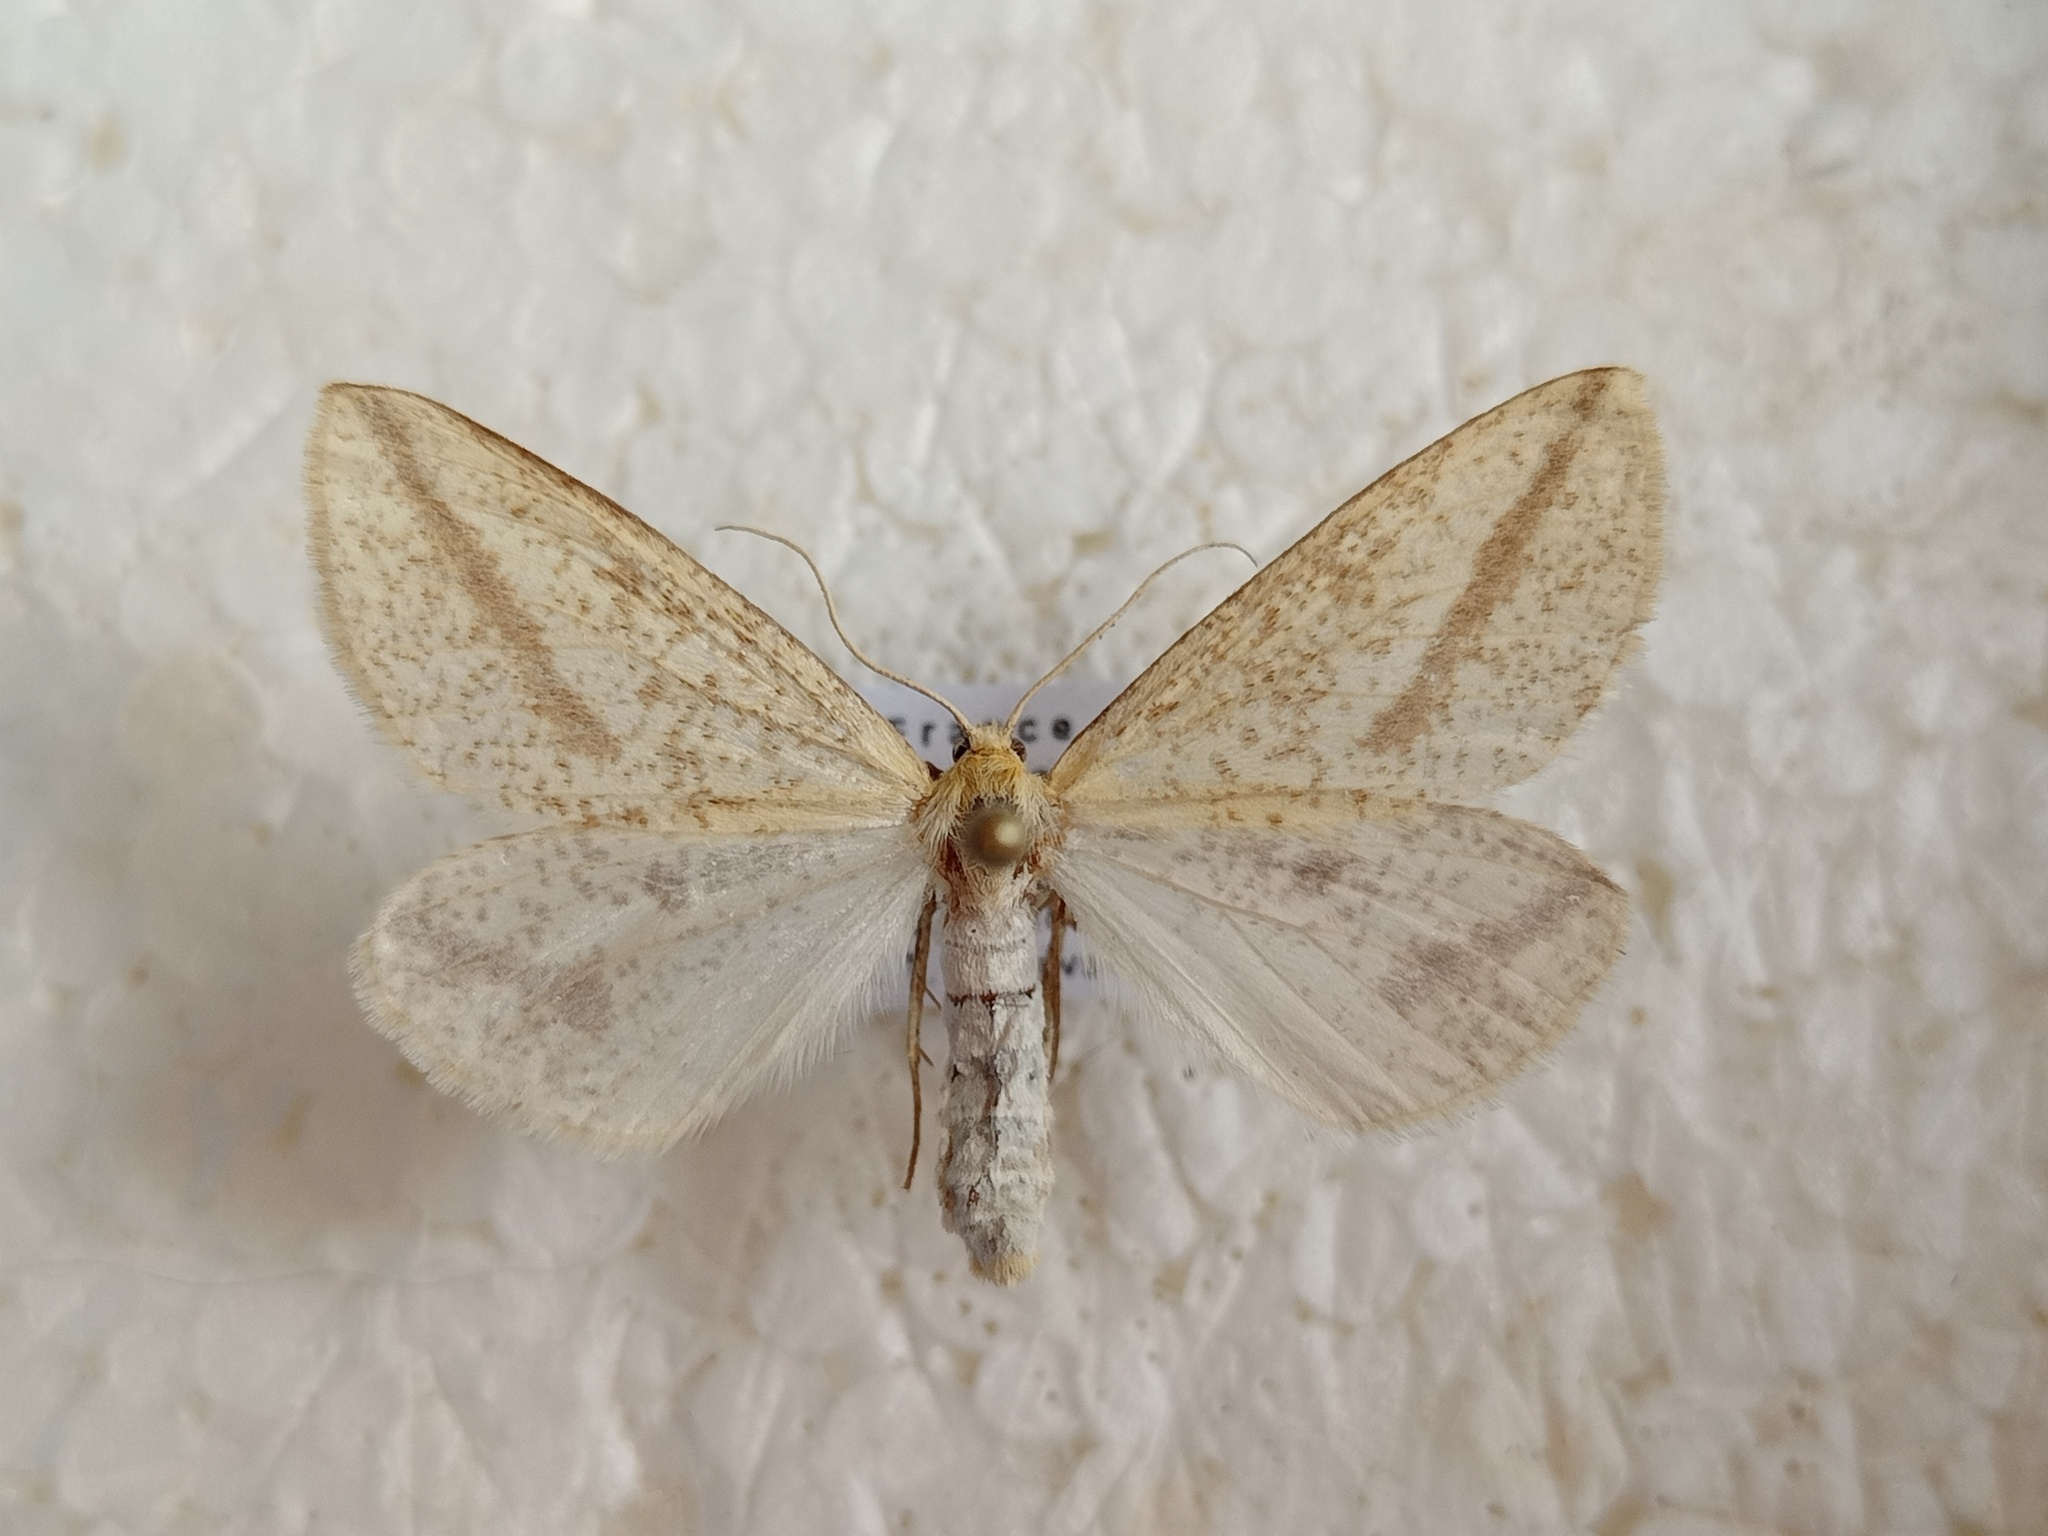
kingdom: Animalia
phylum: Arthropoda
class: Insecta
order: Lepidoptera
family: Geometridae
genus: Aspitates
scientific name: Aspitates gilvaria
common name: Straw belle
